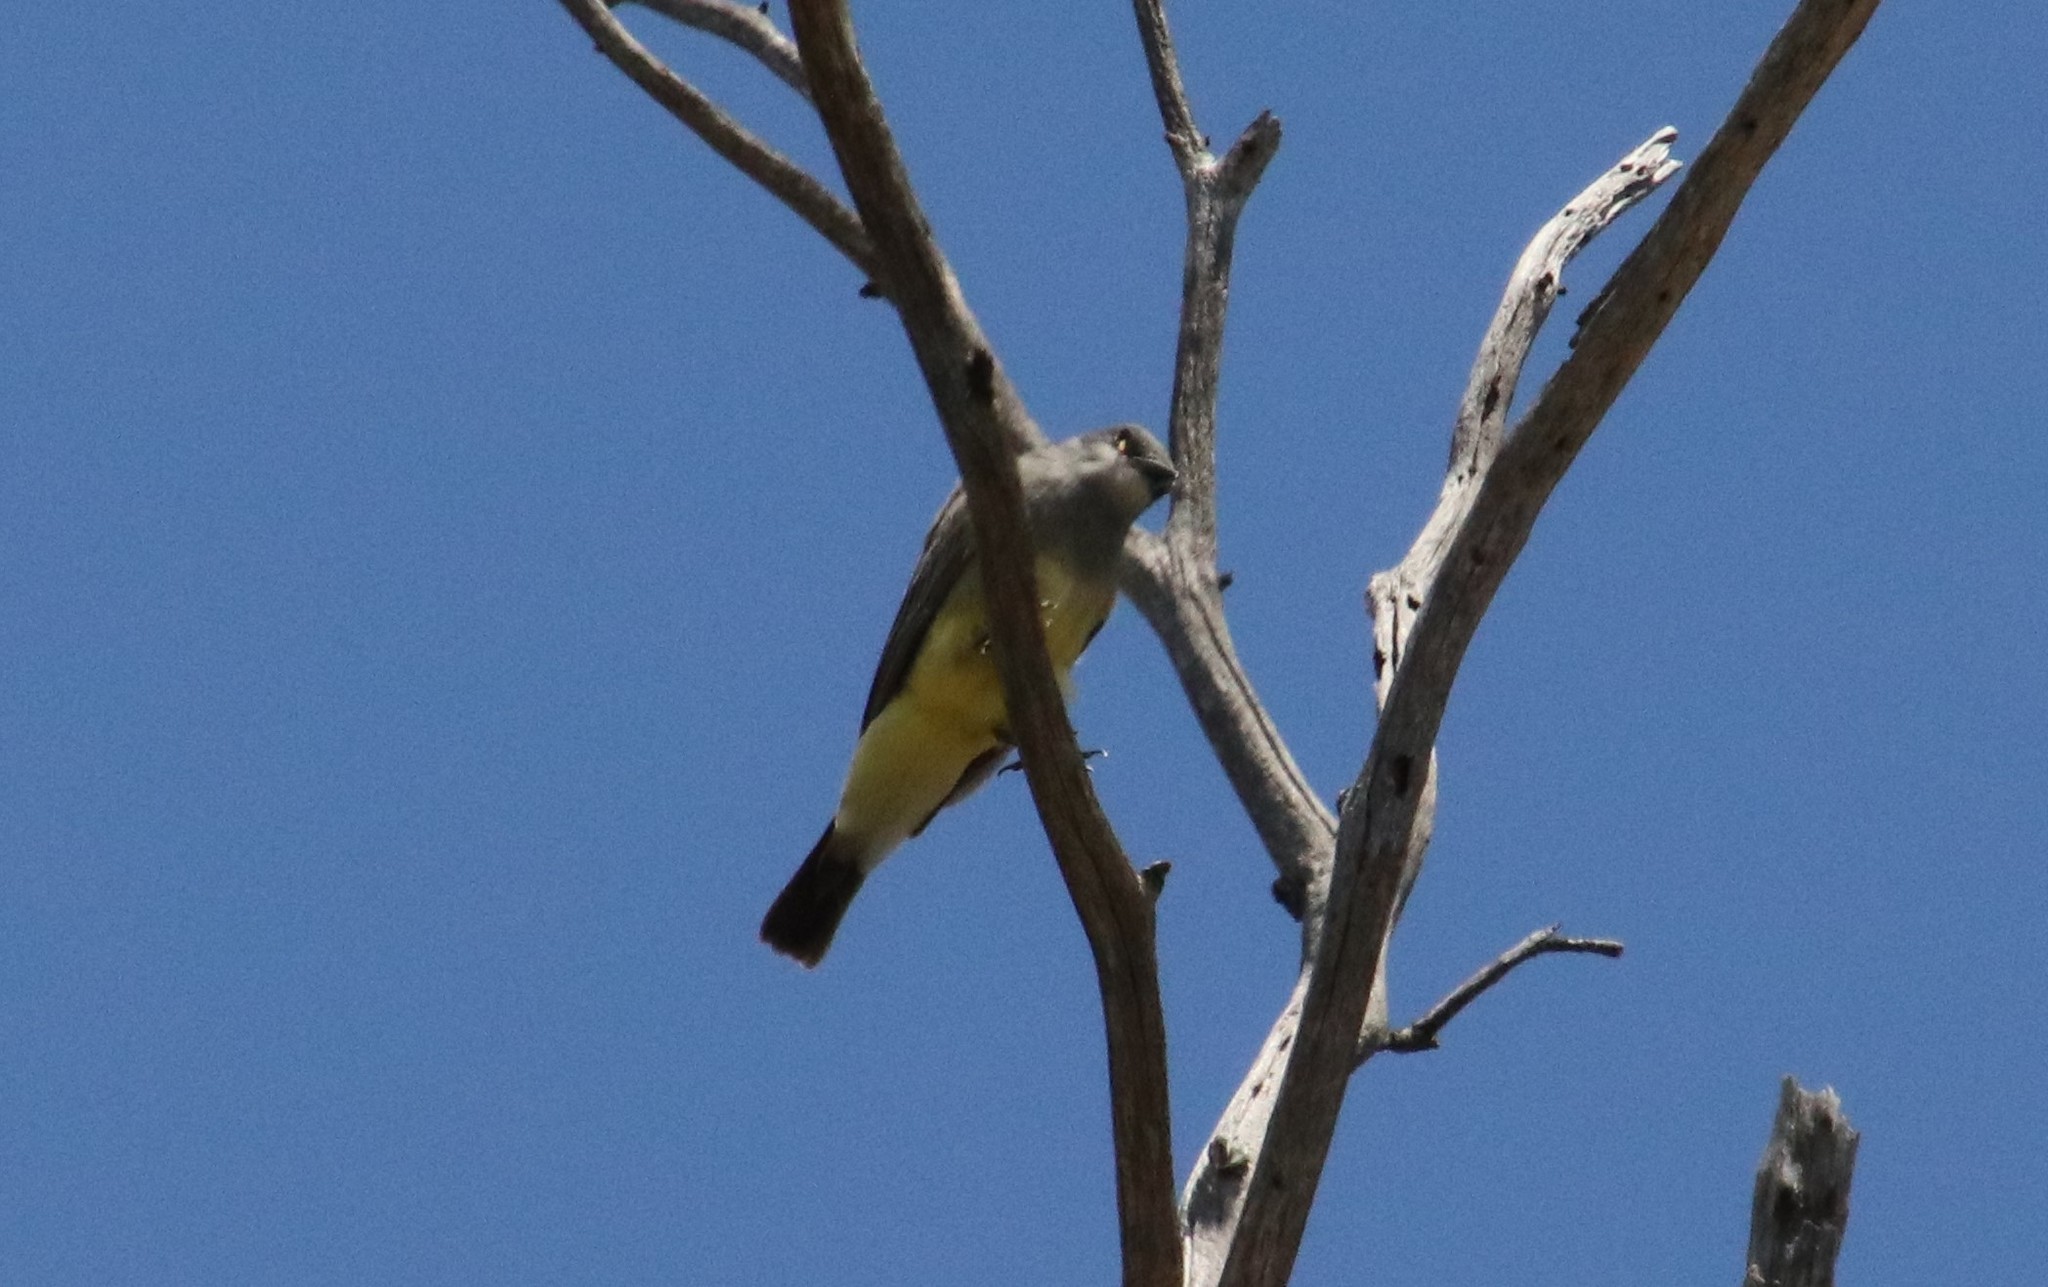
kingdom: Animalia
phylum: Chordata
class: Aves
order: Passeriformes
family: Tyrannidae
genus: Tyrannus
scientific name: Tyrannus vociferans
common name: Cassin's kingbird
